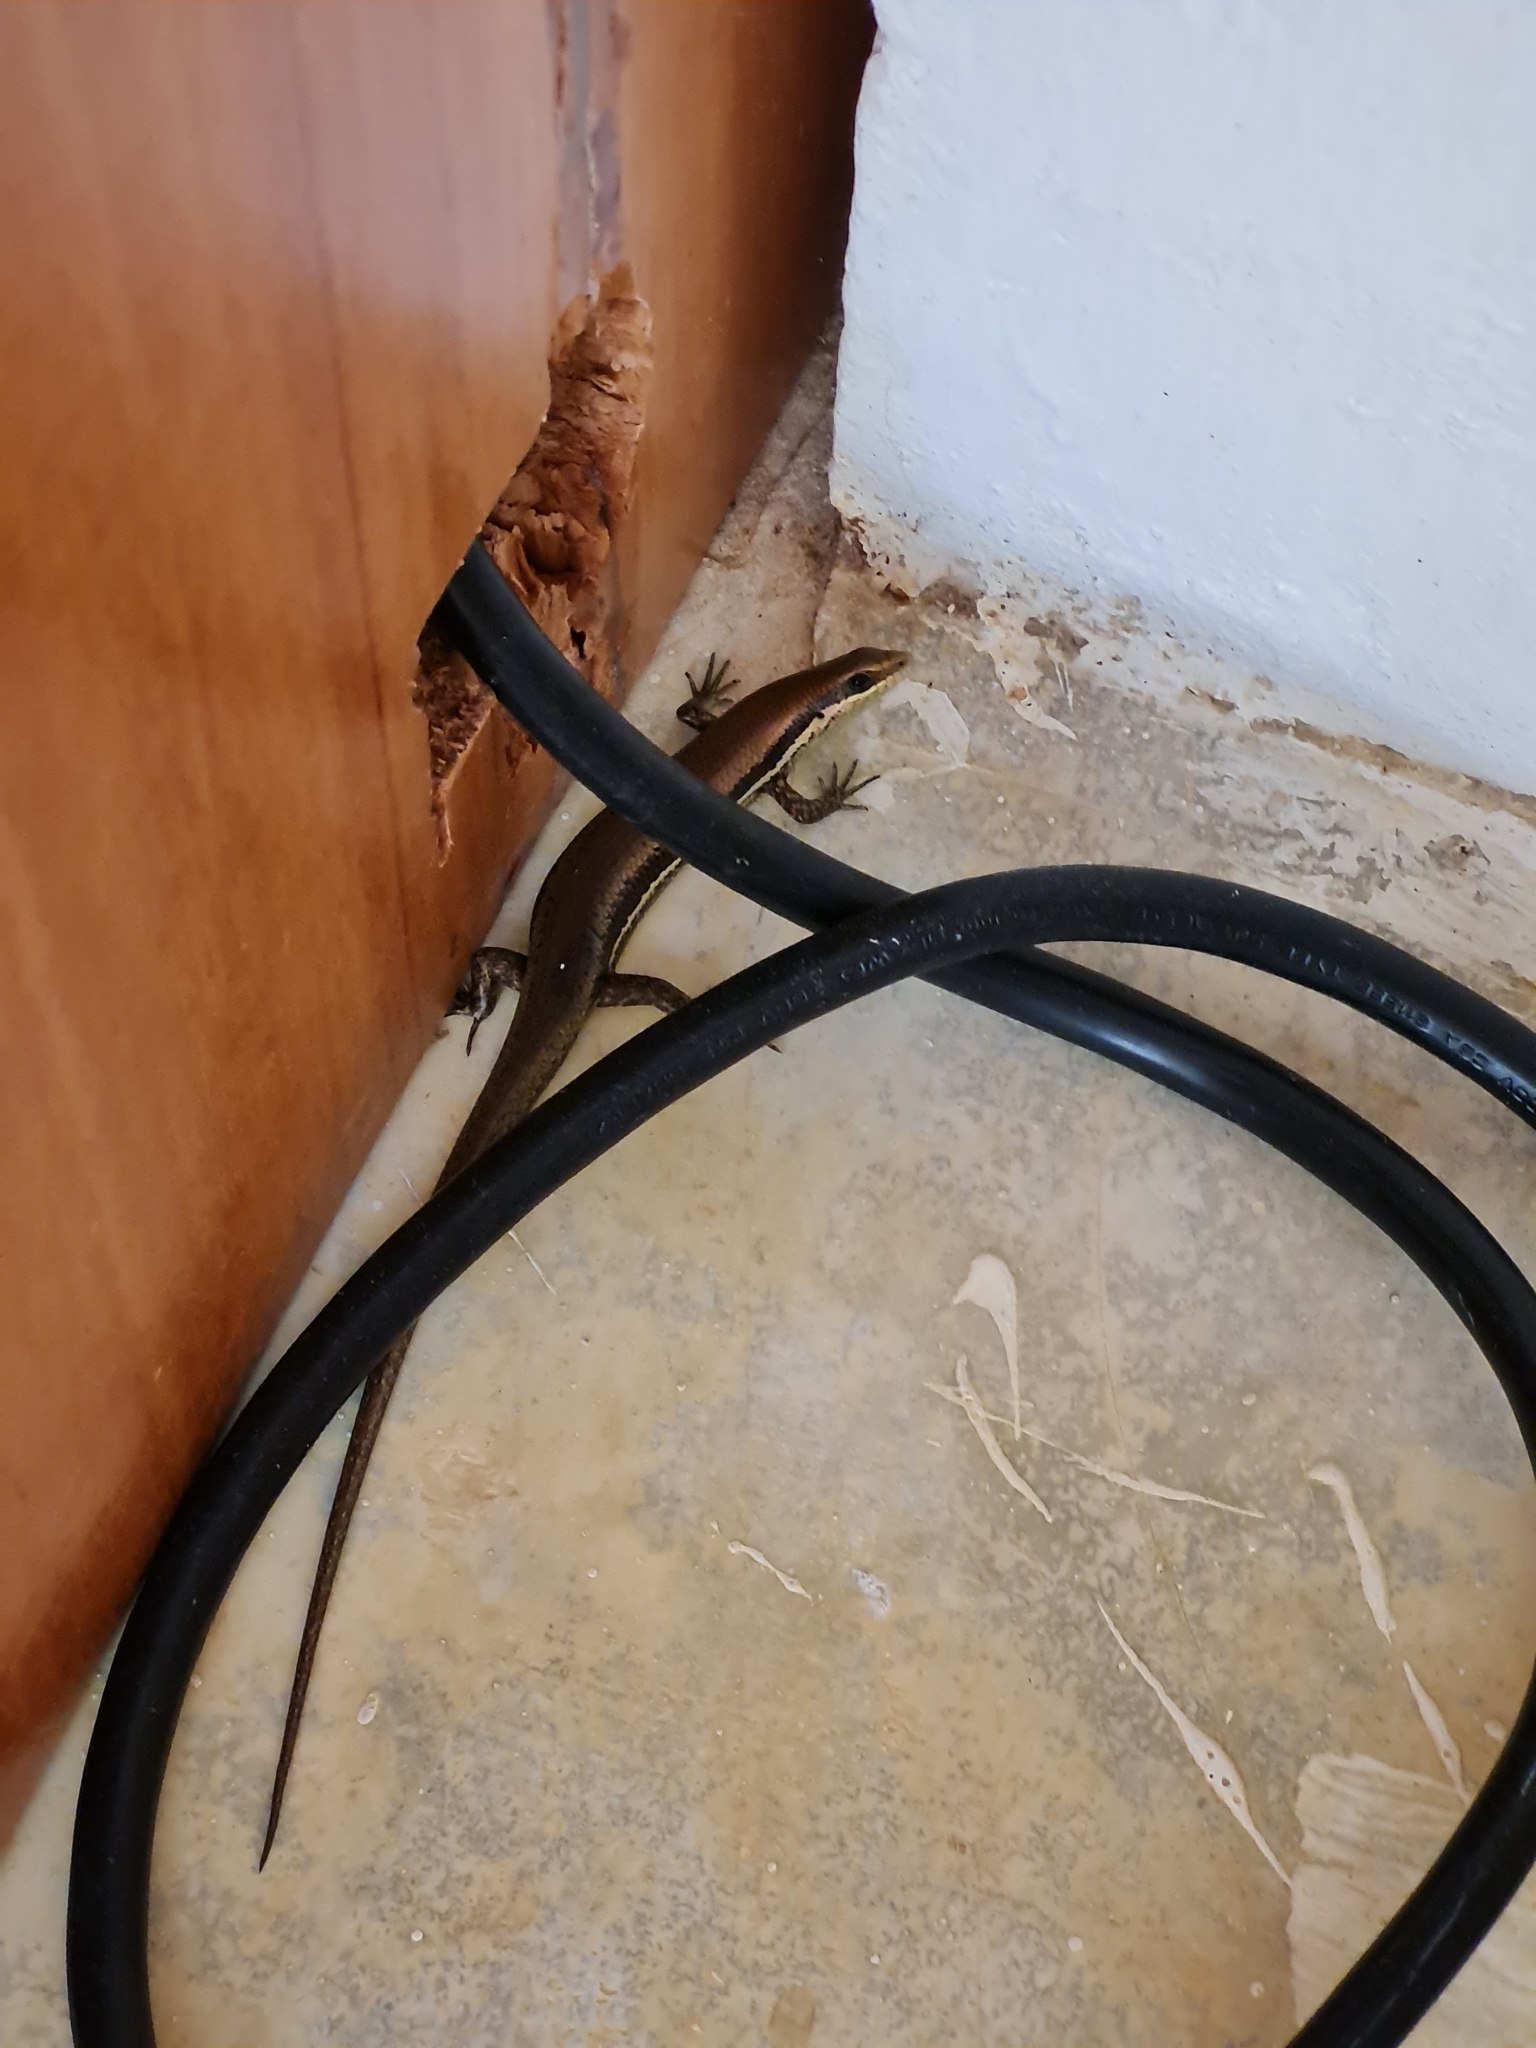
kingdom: Animalia
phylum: Chordata
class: Squamata
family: Scincidae
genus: Marisora
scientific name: Marisora unimarginata
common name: Central american mabuya
